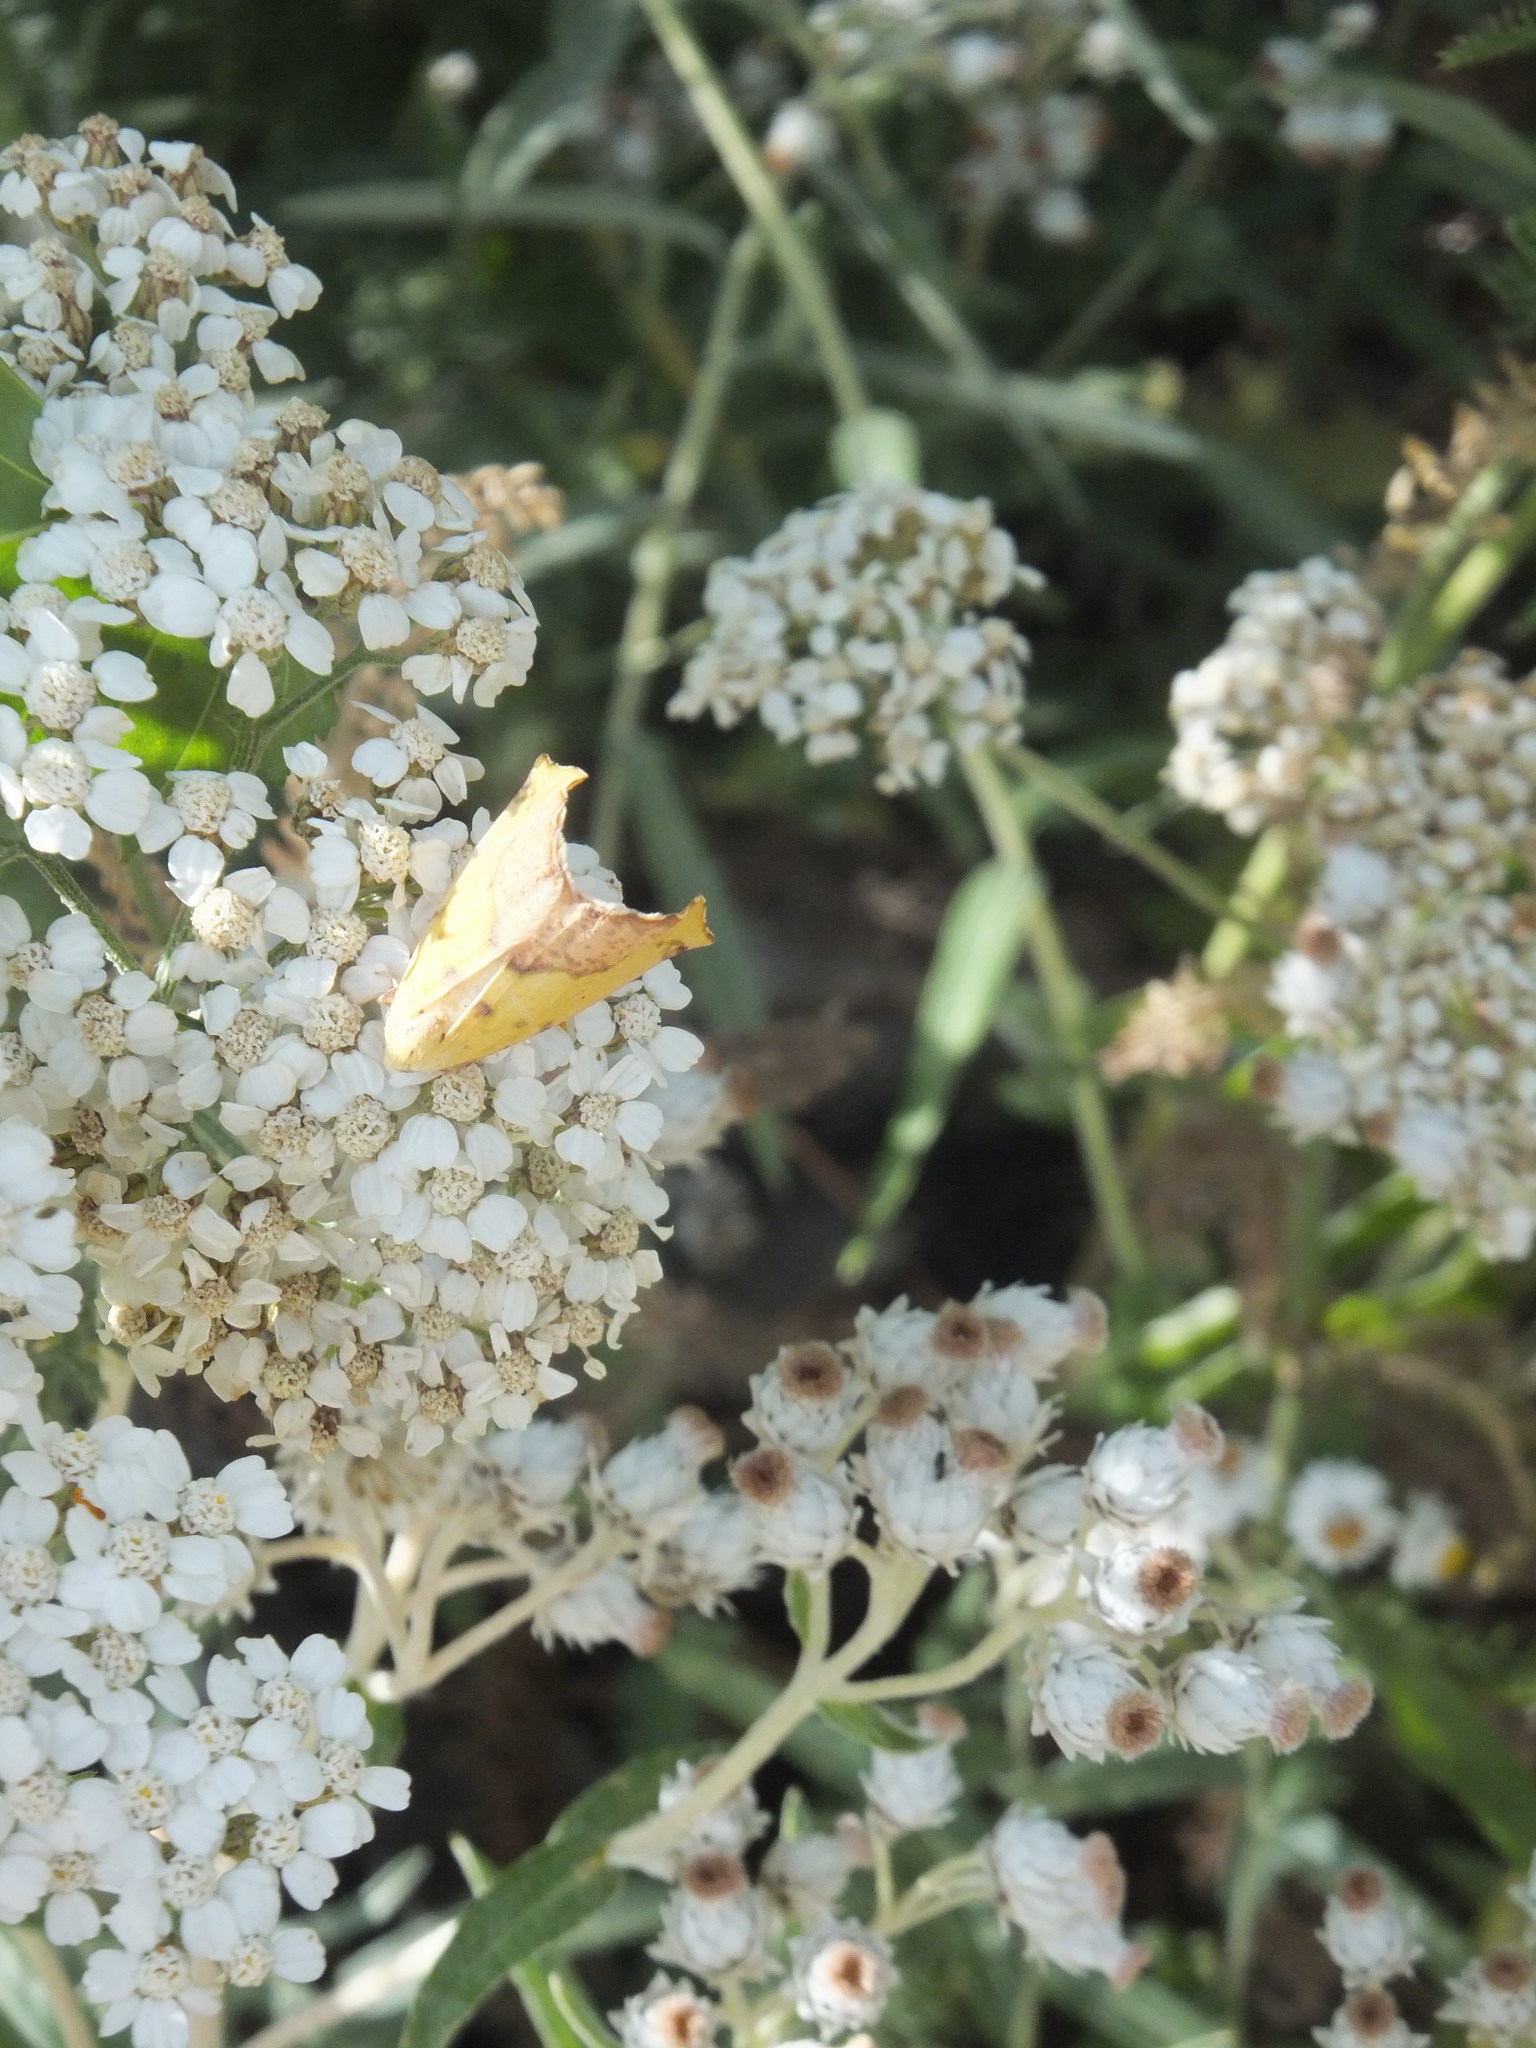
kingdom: Animalia
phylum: Arthropoda
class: Insecta
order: Lepidoptera
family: Geometridae
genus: Sicya
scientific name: Sicya macularia
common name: Sharp-lined yellow
